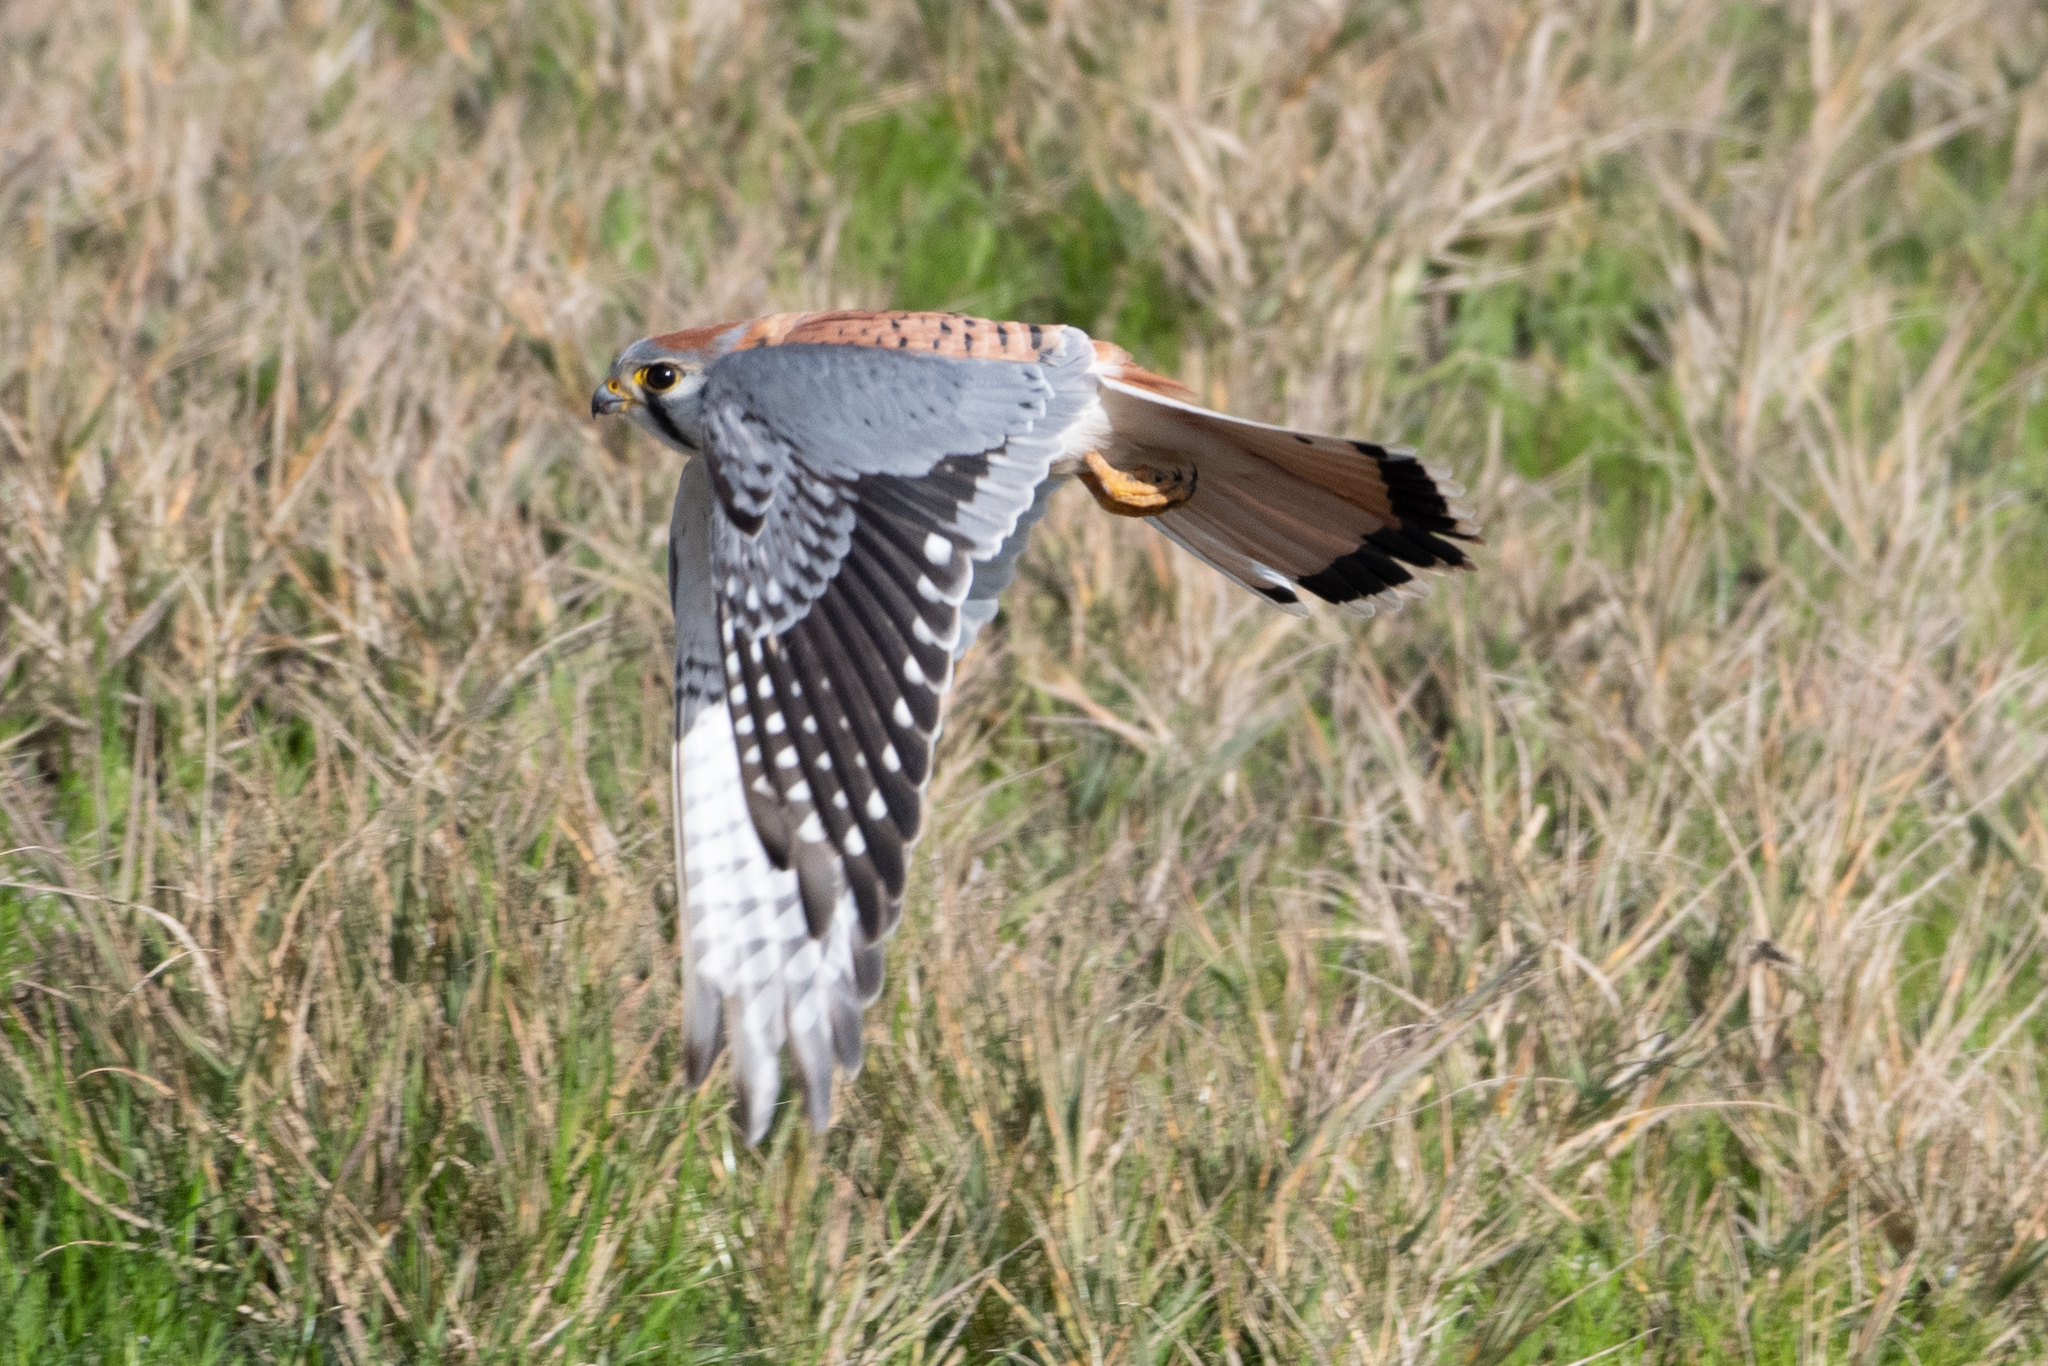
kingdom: Animalia
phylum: Chordata
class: Aves
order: Falconiformes
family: Falconidae
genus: Falco
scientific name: Falco sparverius
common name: American kestrel
